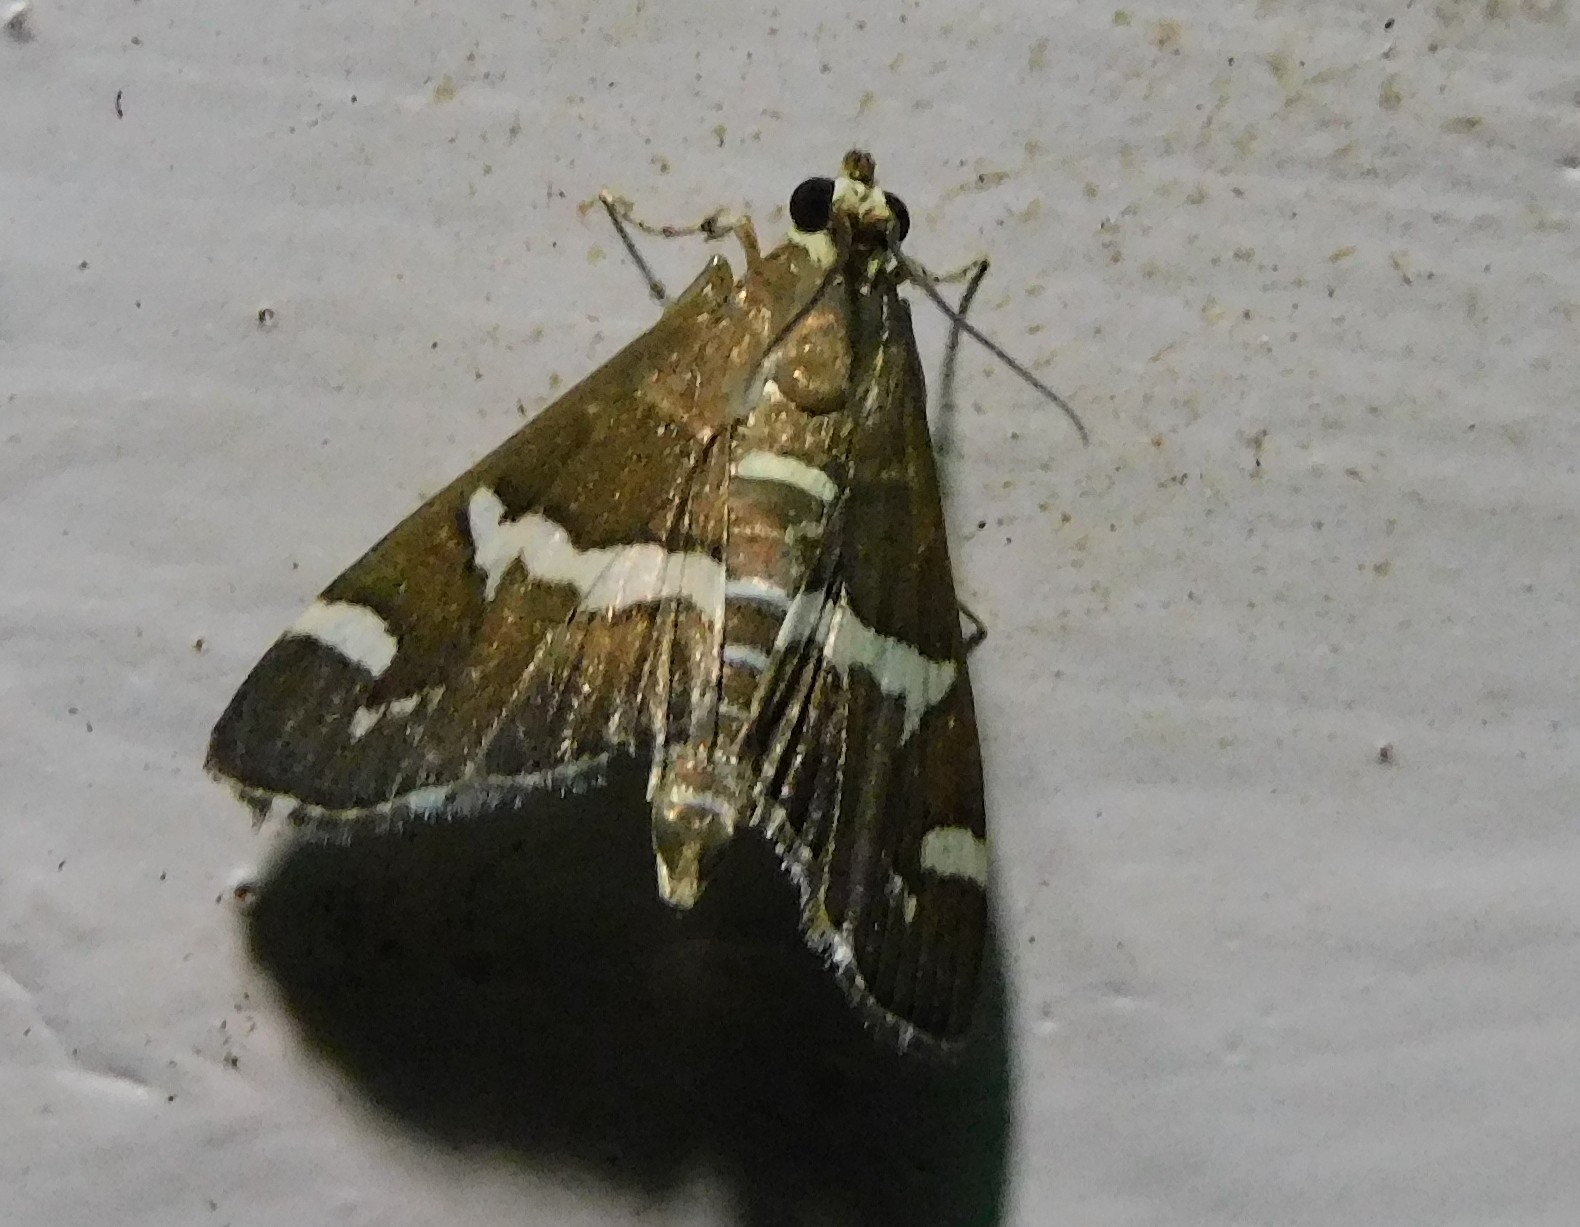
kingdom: Animalia
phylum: Arthropoda
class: Insecta
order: Lepidoptera
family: Crambidae
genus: Spoladea
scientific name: Spoladea recurvalis
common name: Beet webworm moth
